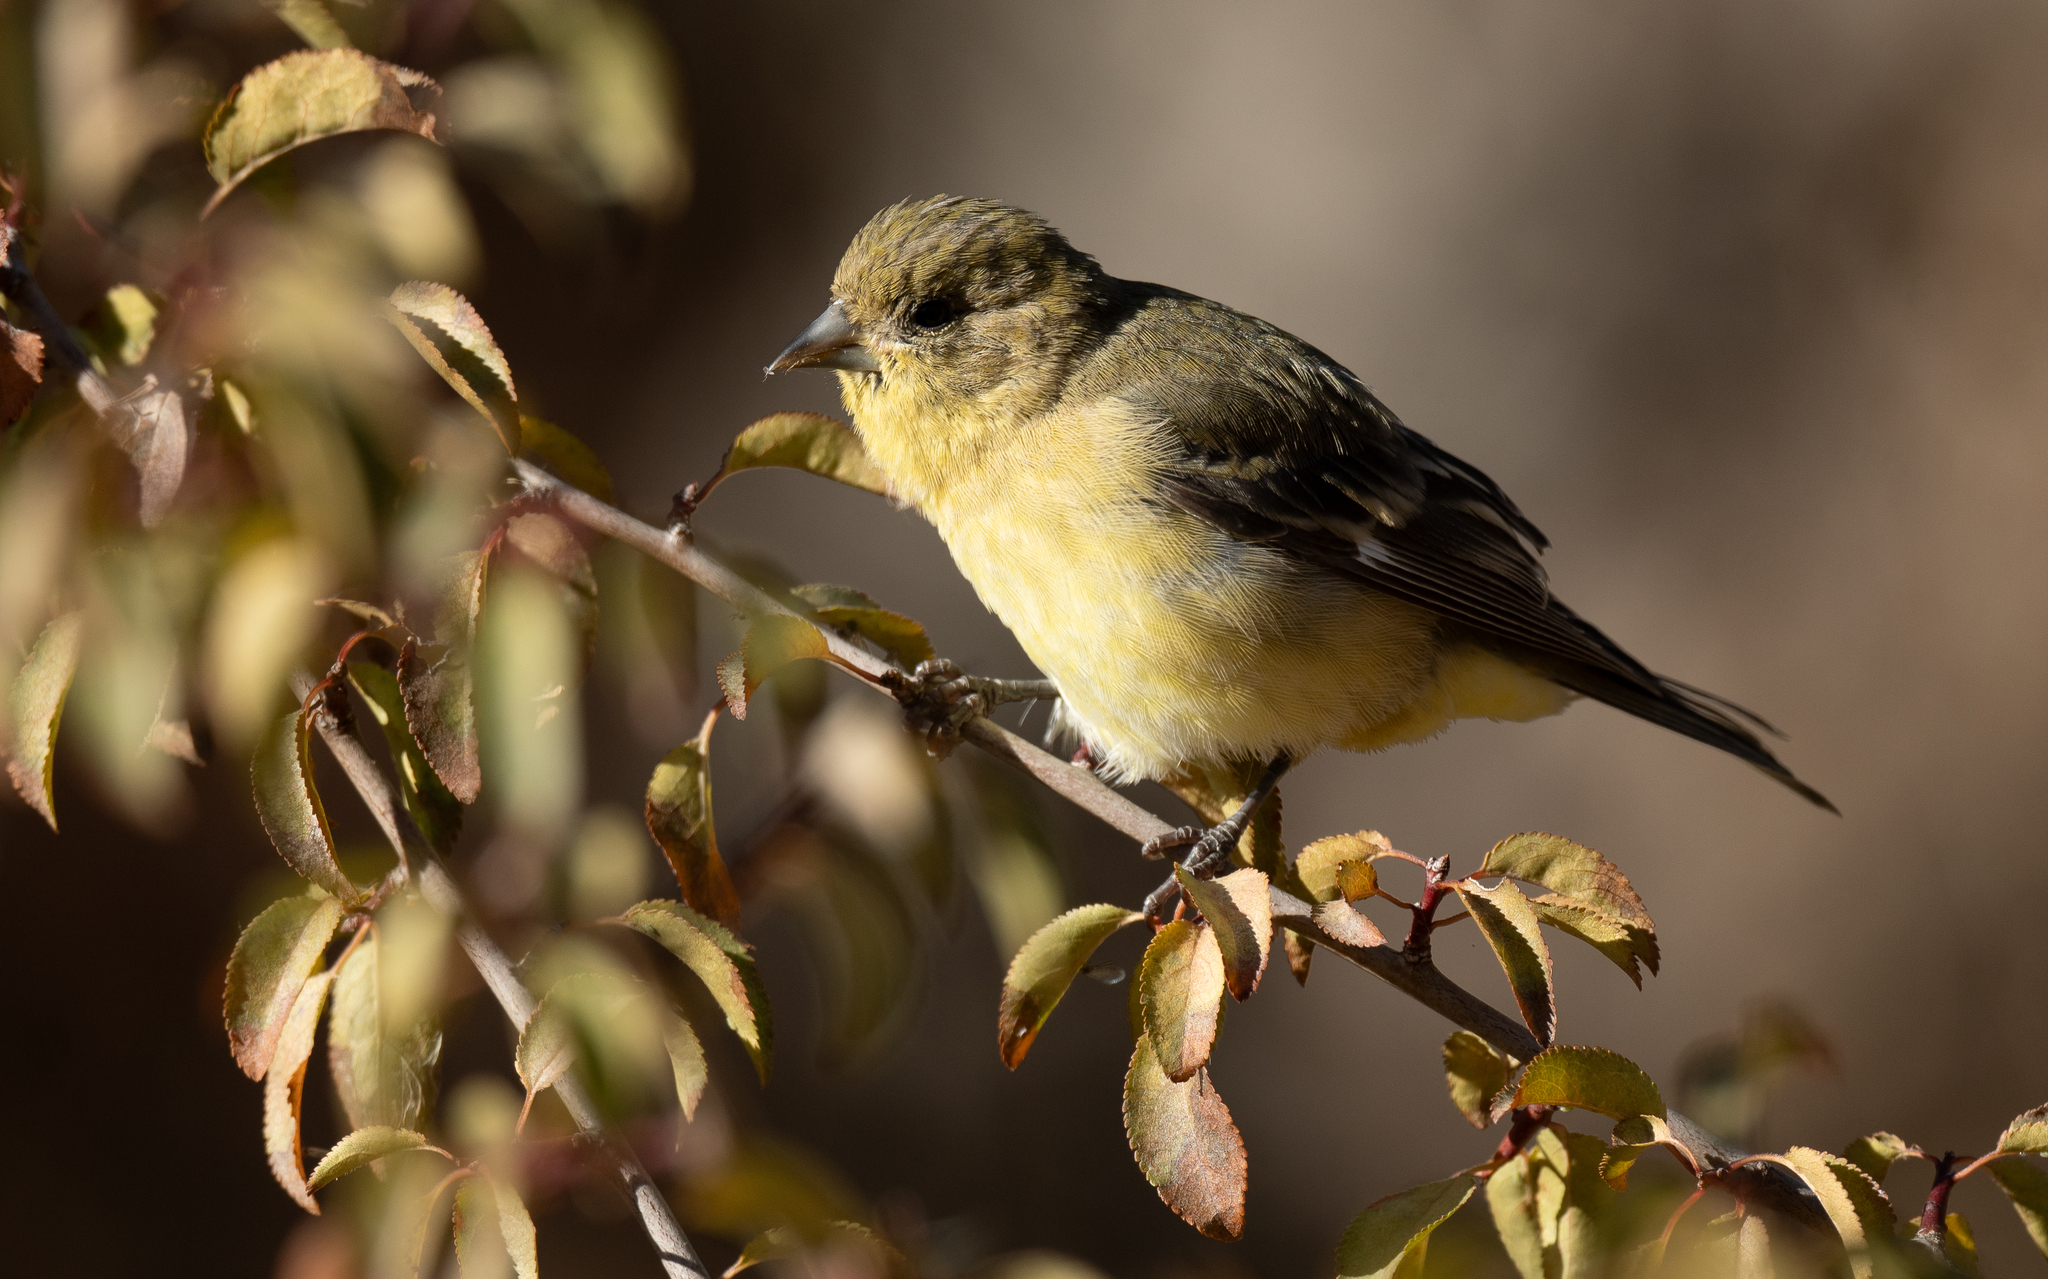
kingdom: Animalia
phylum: Chordata
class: Aves
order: Passeriformes
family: Fringillidae
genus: Spinus
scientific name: Spinus psaltria
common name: Lesser goldfinch
